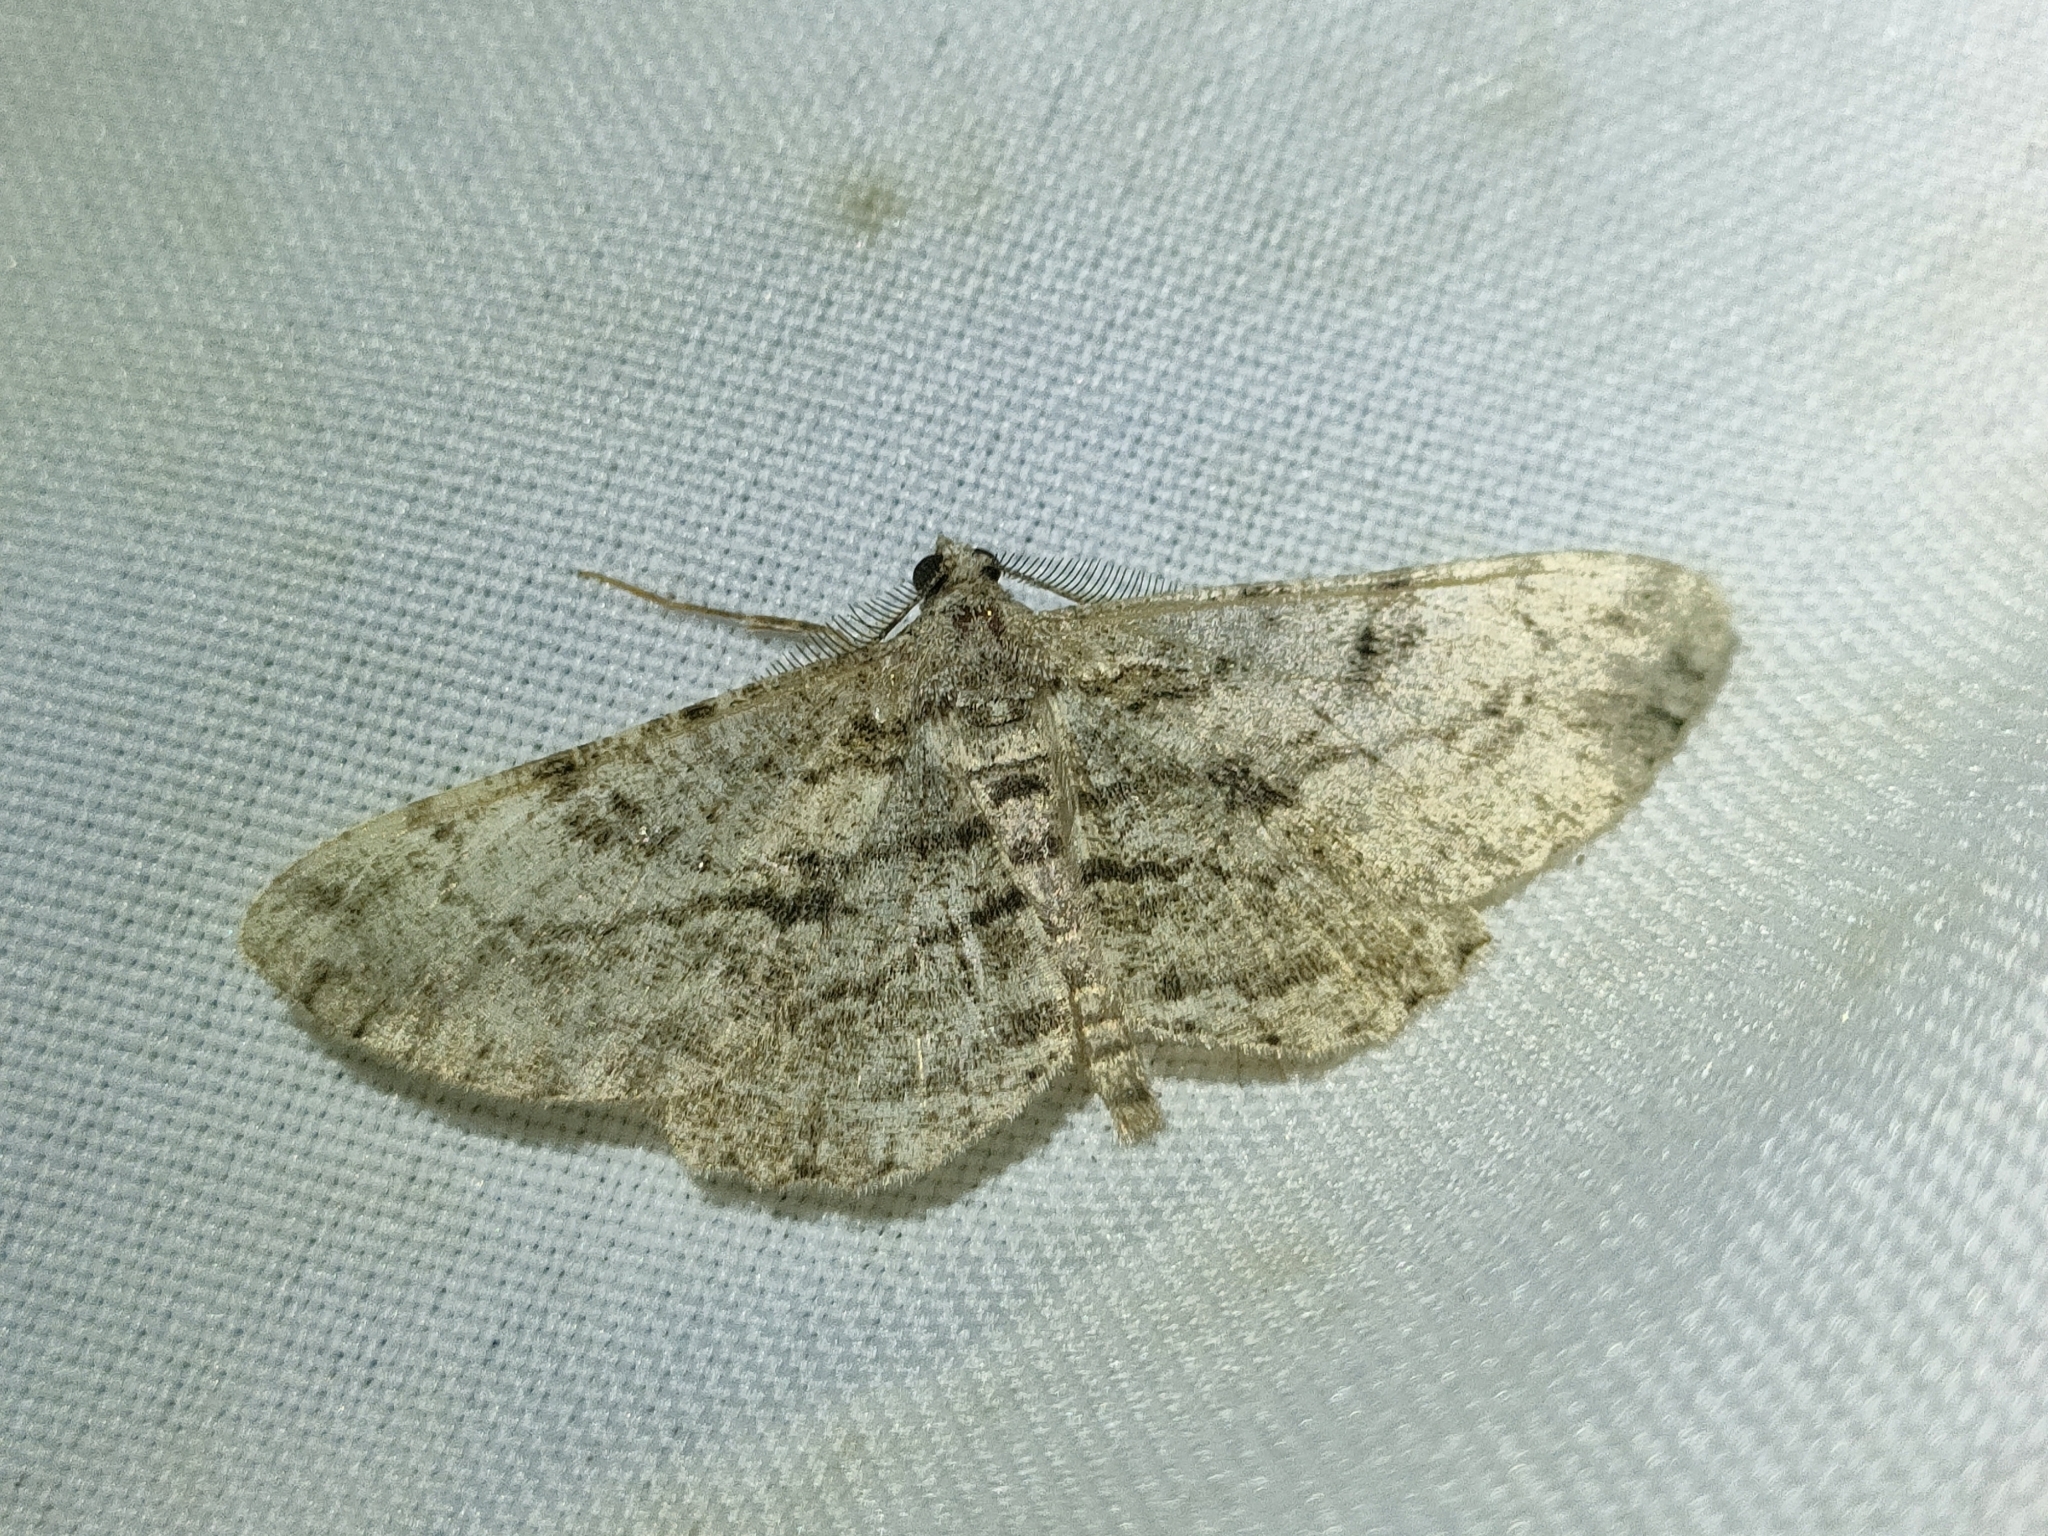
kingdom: Animalia
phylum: Arthropoda
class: Insecta
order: Lepidoptera
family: Geometridae
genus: Peribatodes
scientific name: Peribatodes rhomboidaria
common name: Willow beauty
